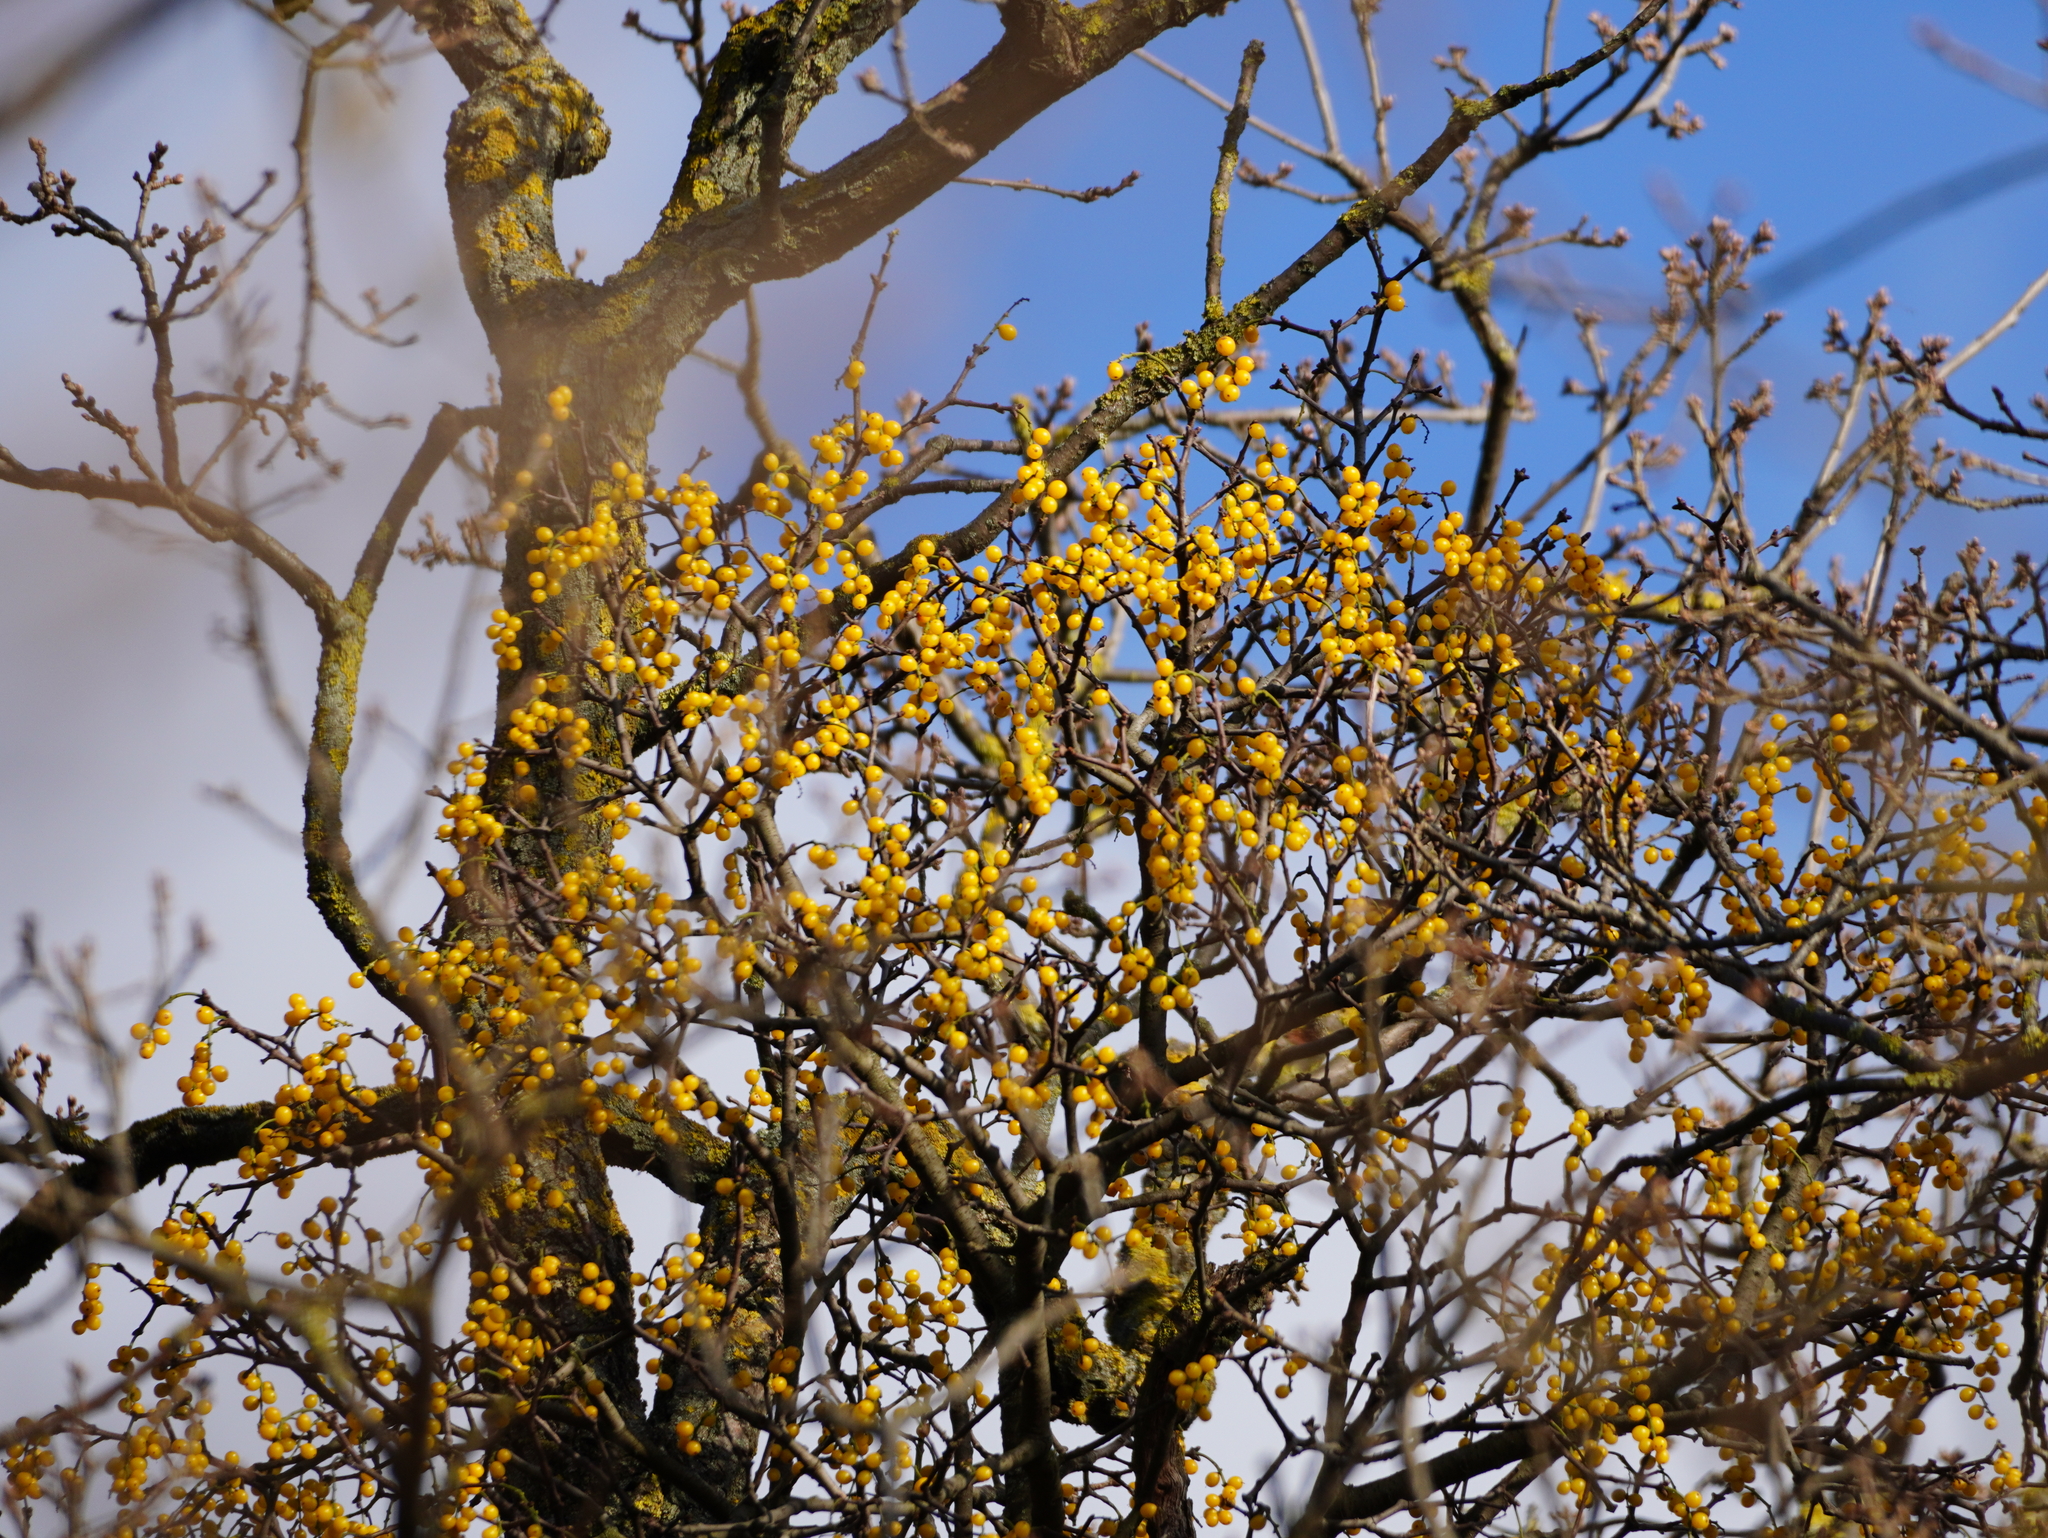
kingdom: Plantae
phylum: Tracheophyta
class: Magnoliopsida
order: Santalales
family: Loranthaceae
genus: Loranthus
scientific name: Loranthus europaeus
